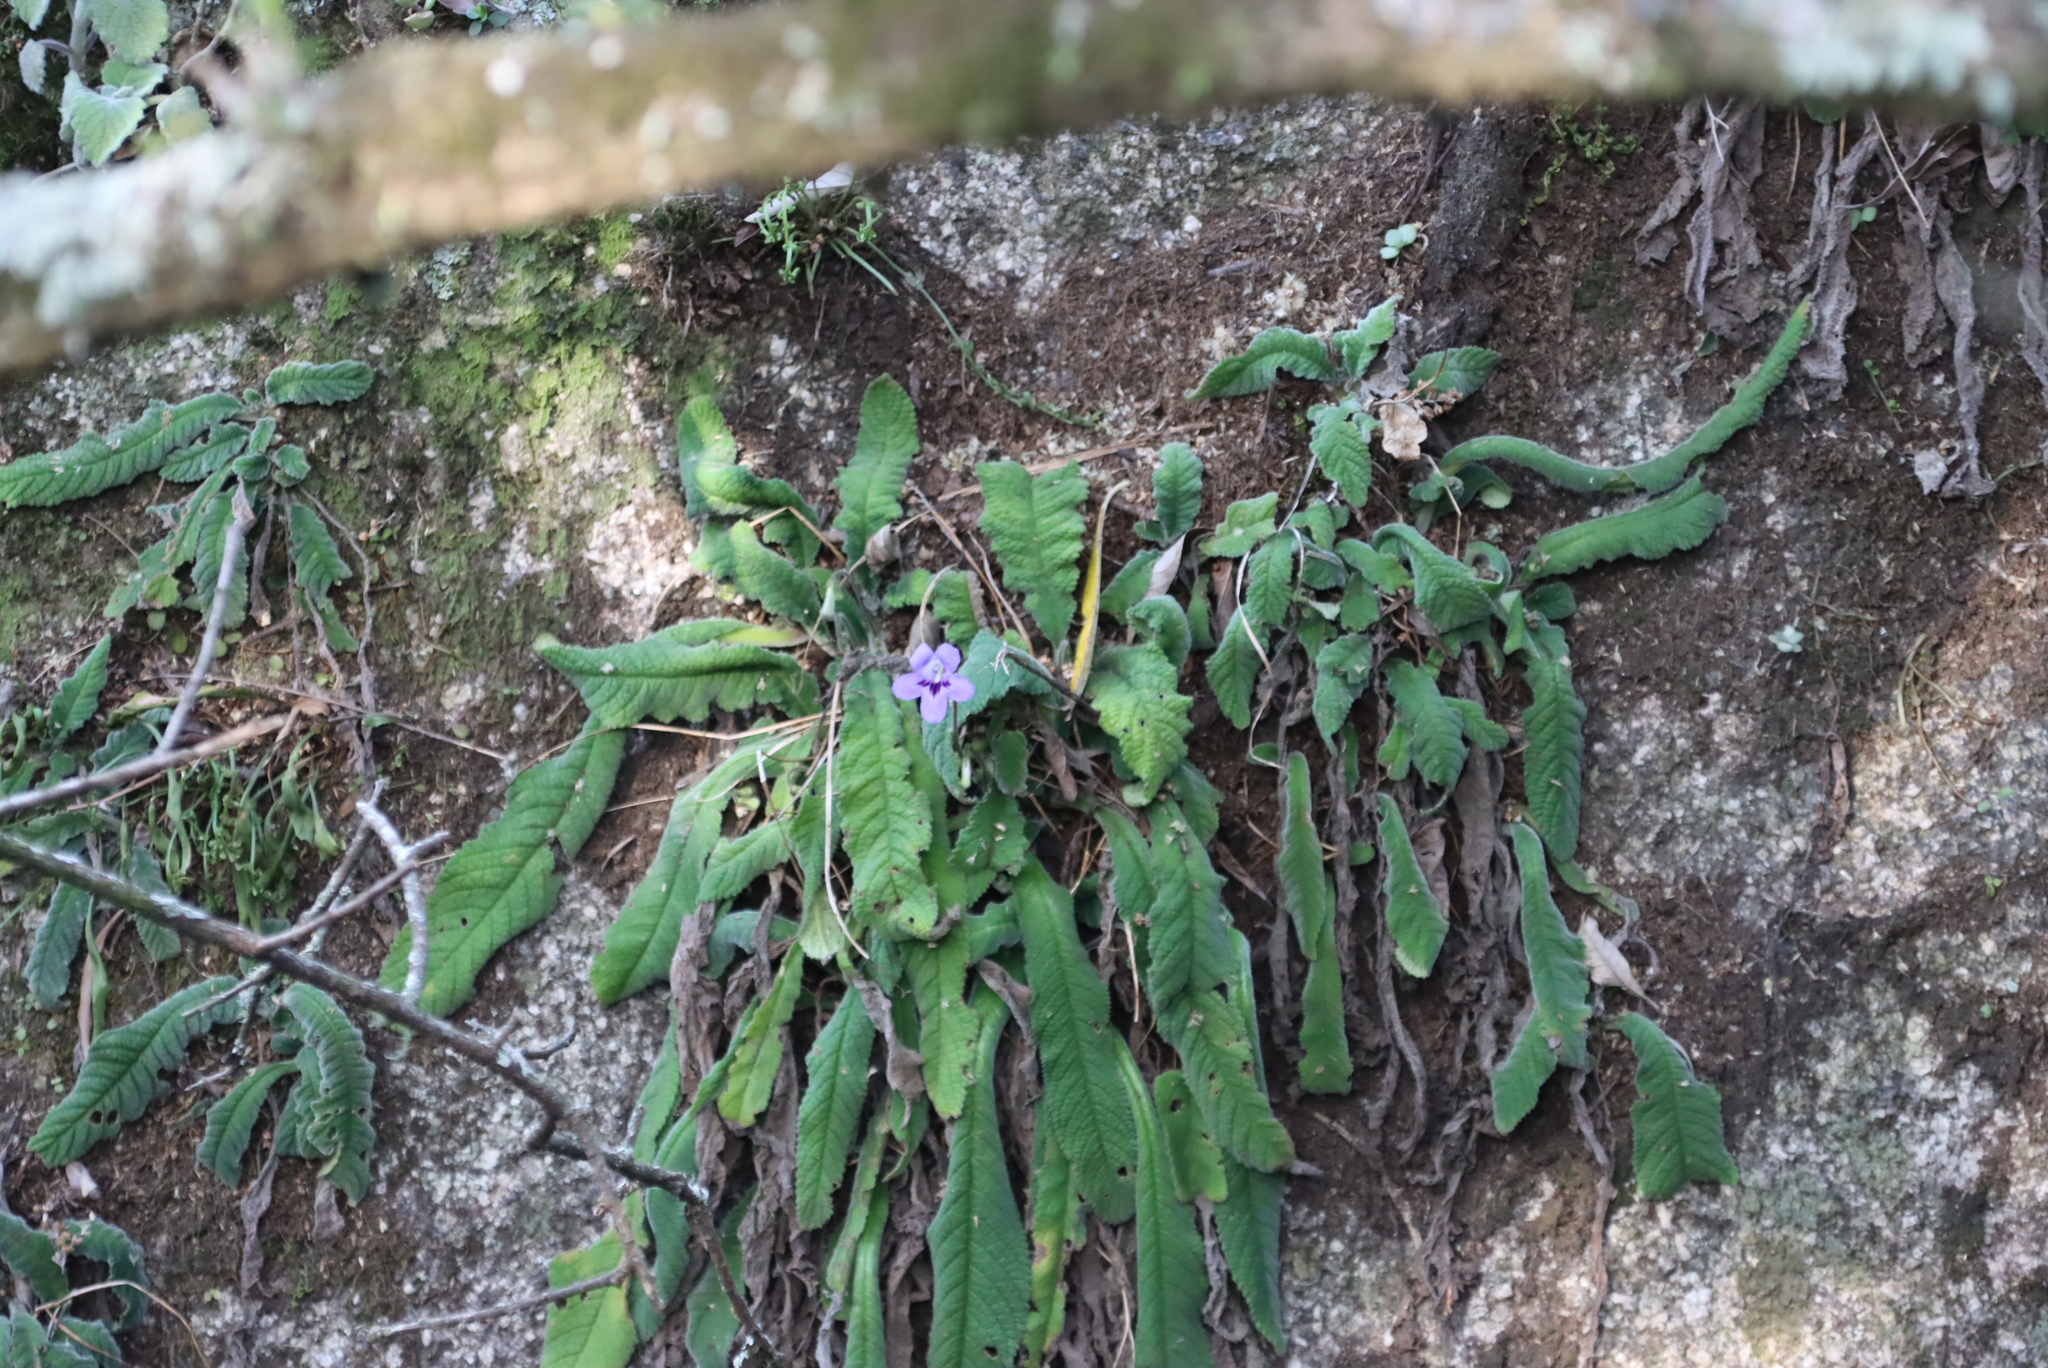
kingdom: Plantae
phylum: Tracheophyta
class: Magnoliopsida
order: Lamiales
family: Gesneriaceae
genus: Streptocarpus
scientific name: Streptocarpus cyaneus
